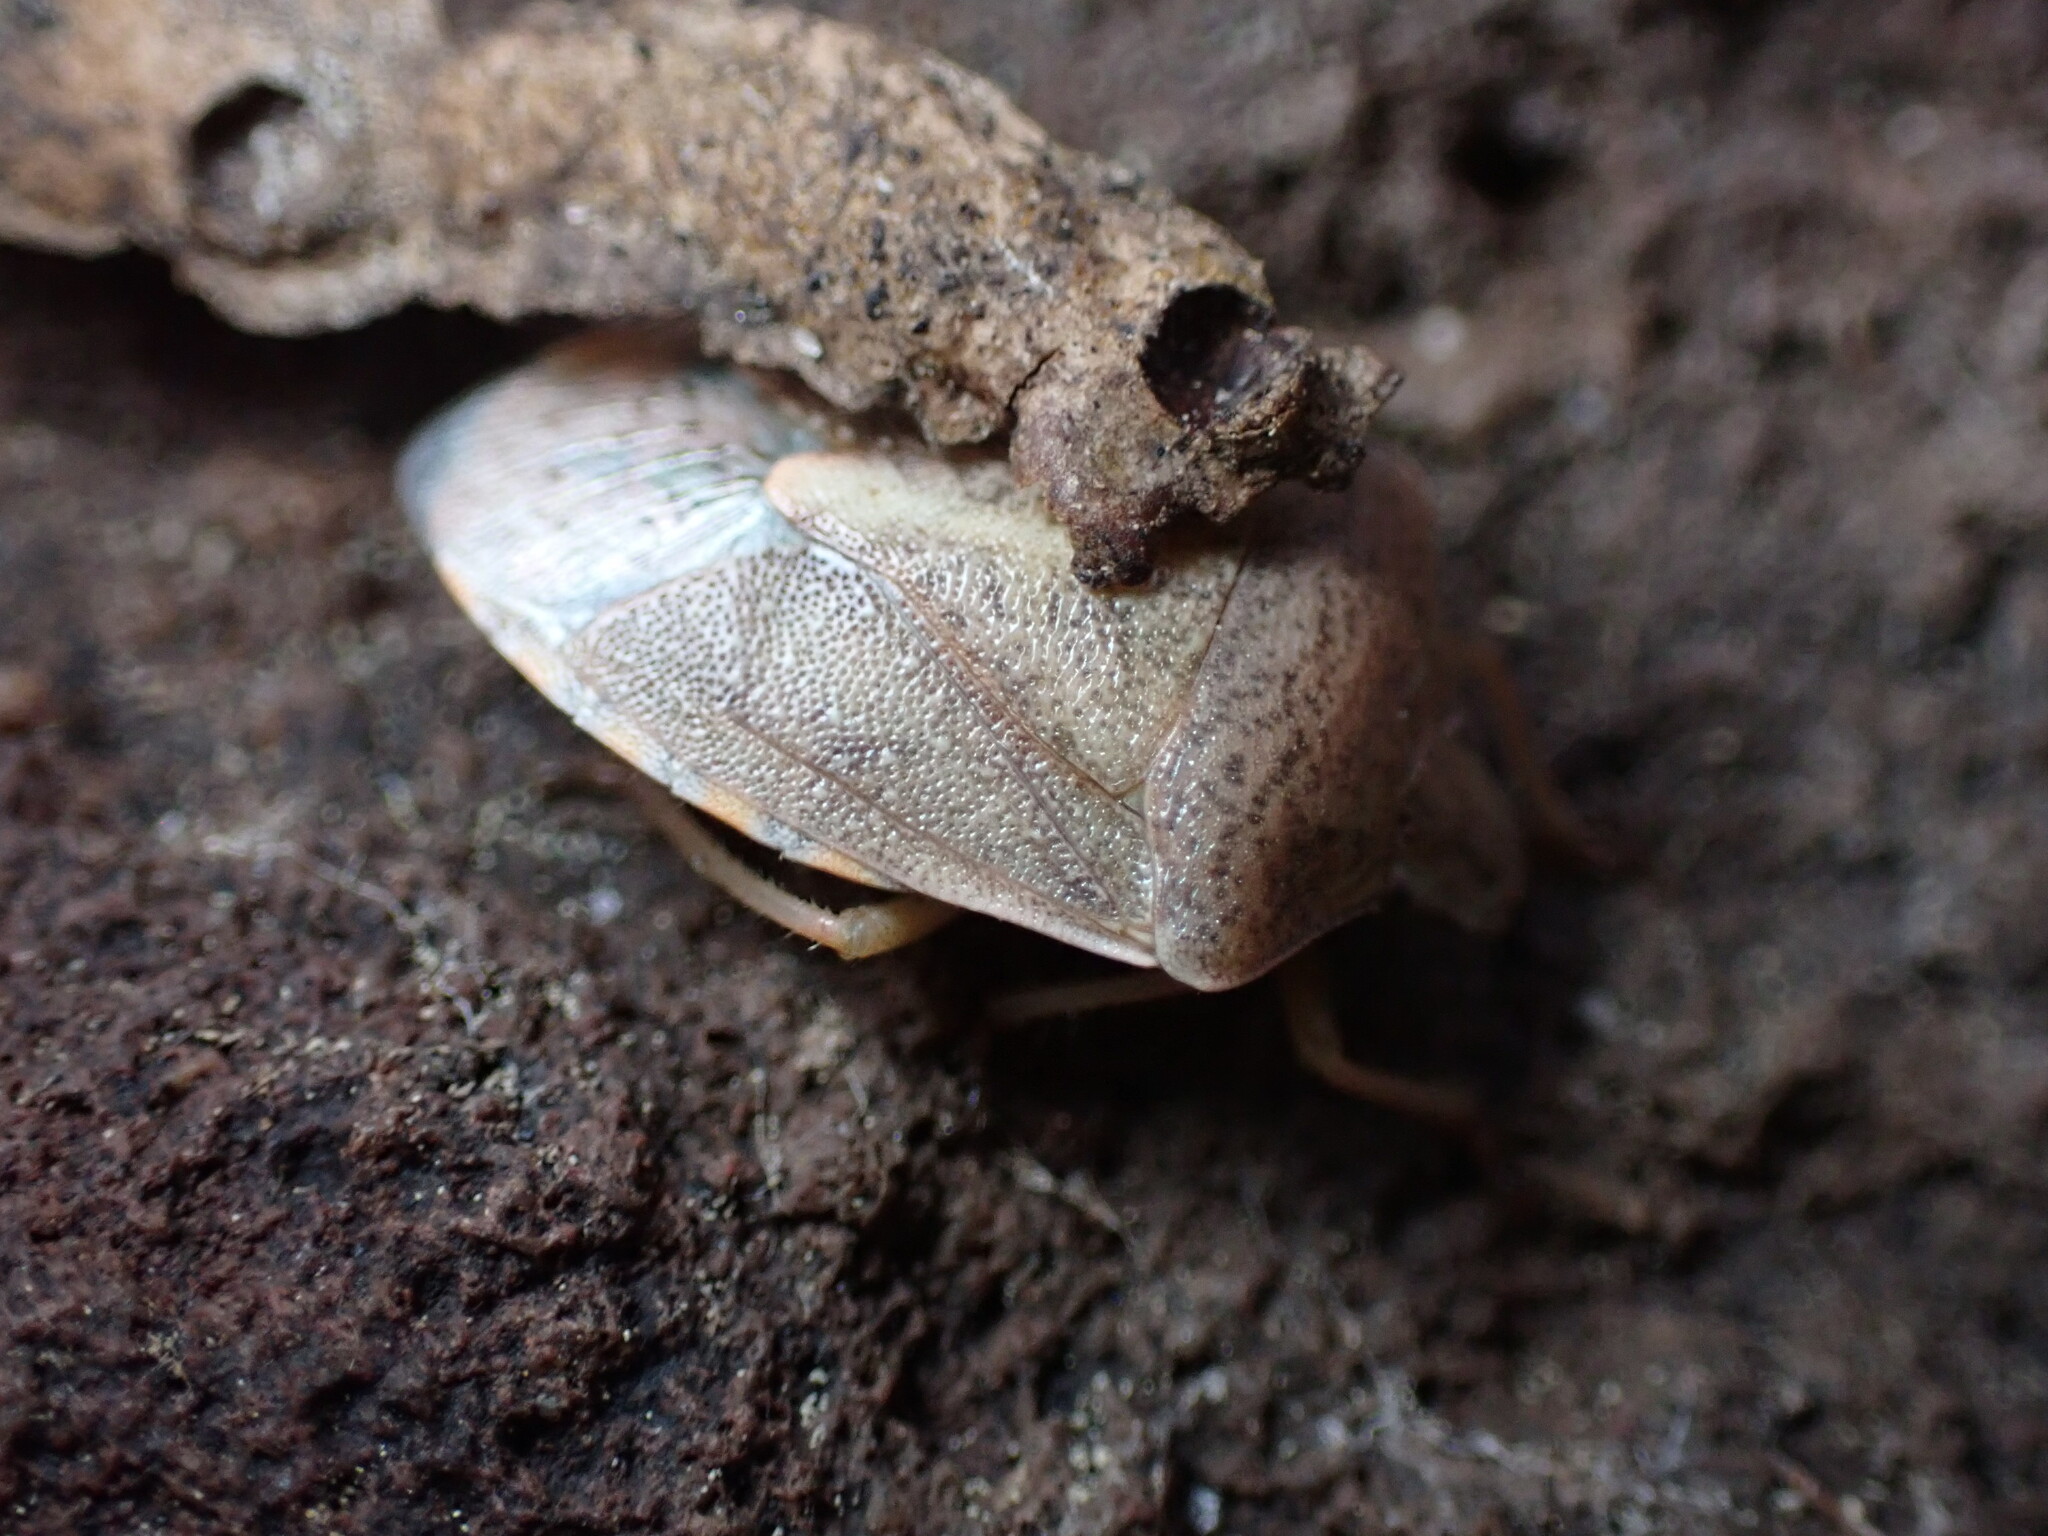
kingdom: Animalia
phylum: Arthropoda
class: Insecta
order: Hemiptera
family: Pentatomidae
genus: Thyanta
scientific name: Thyanta accerra
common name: Stink bug
